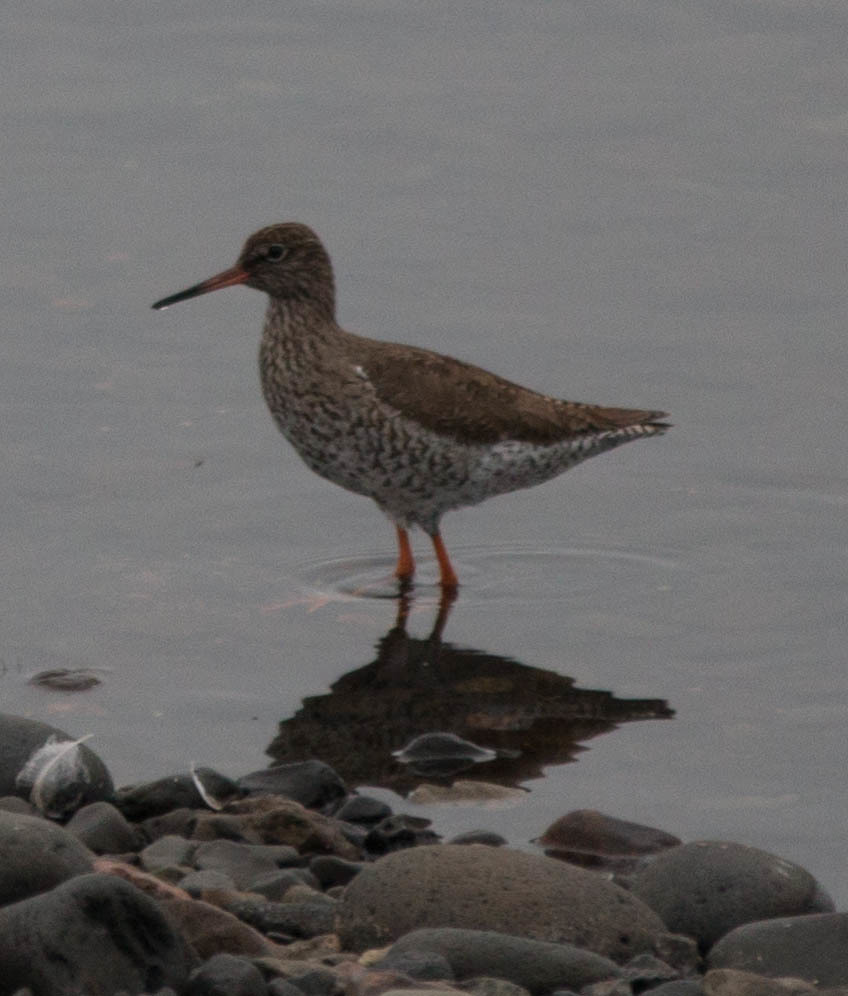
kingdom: Animalia
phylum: Chordata
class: Aves
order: Charadriiformes
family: Scolopacidae
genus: Tringa
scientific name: Tringa totanus
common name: Common redshank
